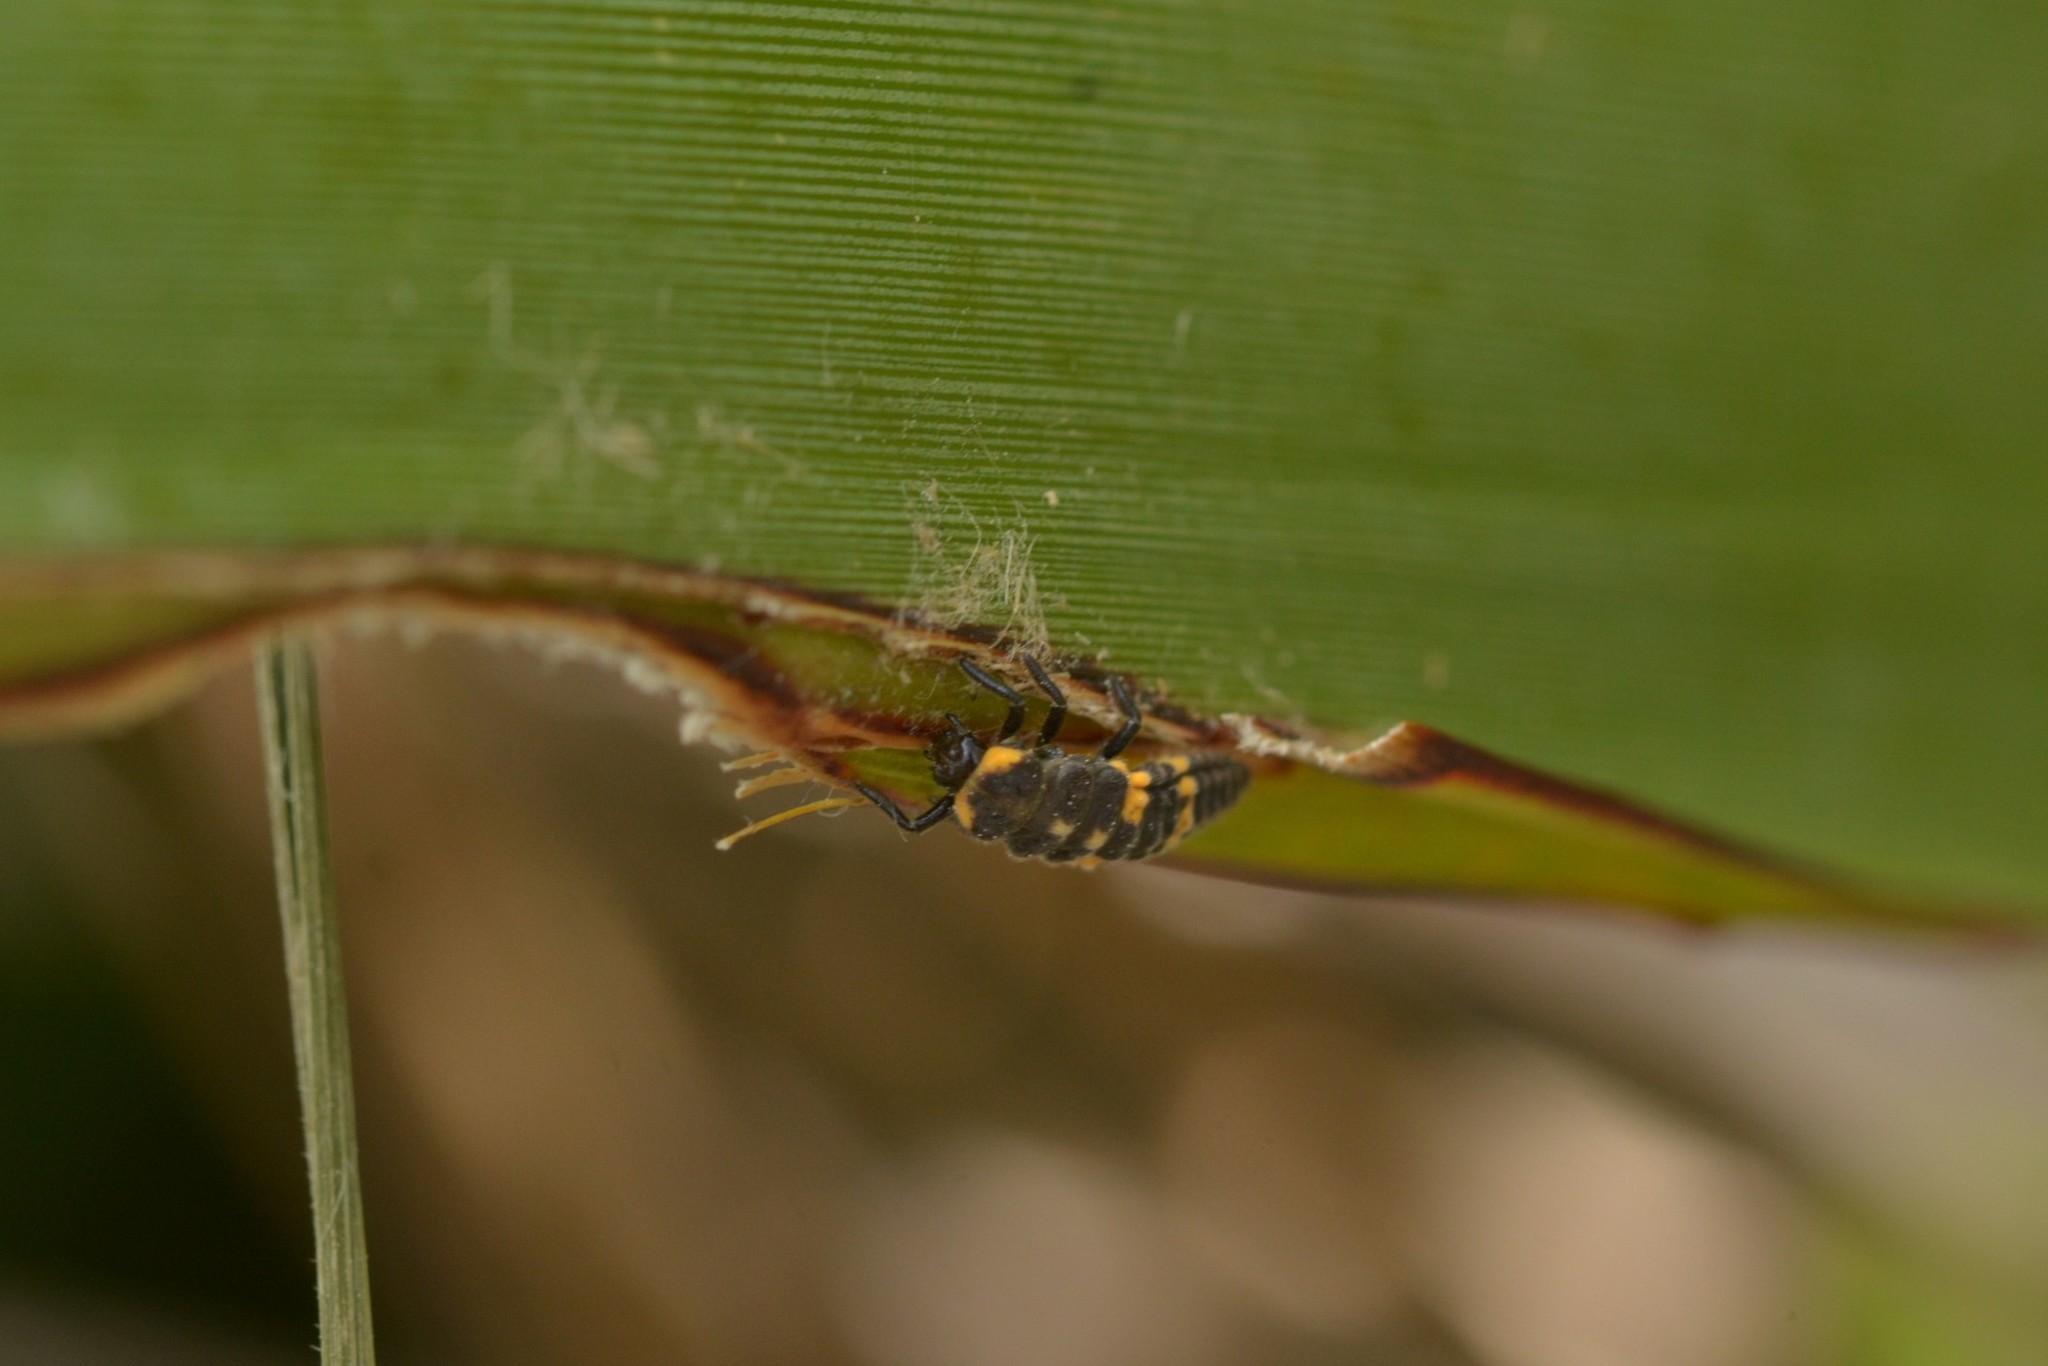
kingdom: Animalia
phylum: Arthropoda
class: Insecta
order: Coleoptera
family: Coccinellidae
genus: Coccinella
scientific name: Coccinella leonina
